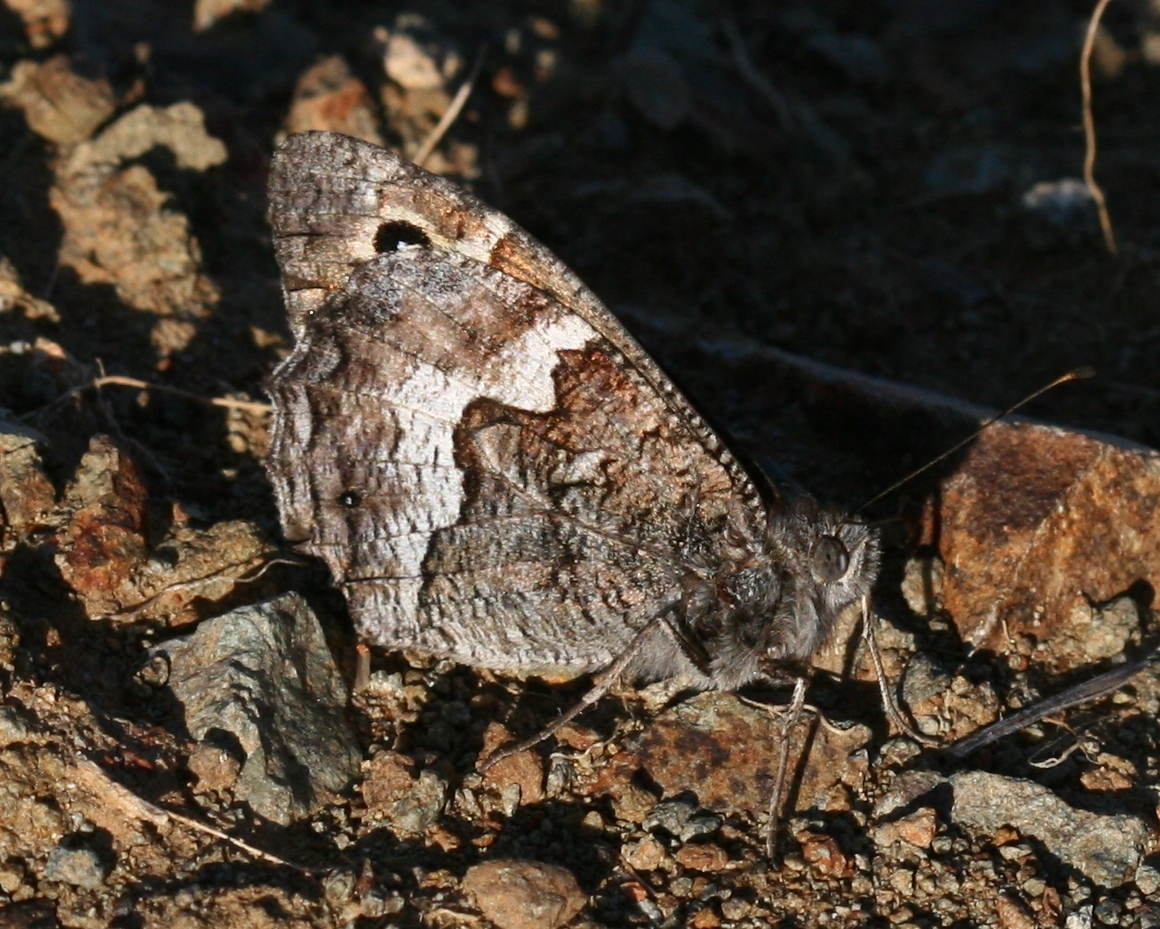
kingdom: Animalia
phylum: Arthropoda
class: Insecta
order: Lepidoptera
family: Nymphalidae
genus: Hipparchia
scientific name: Hipparchia cypriensis
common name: Cyprus grayling
